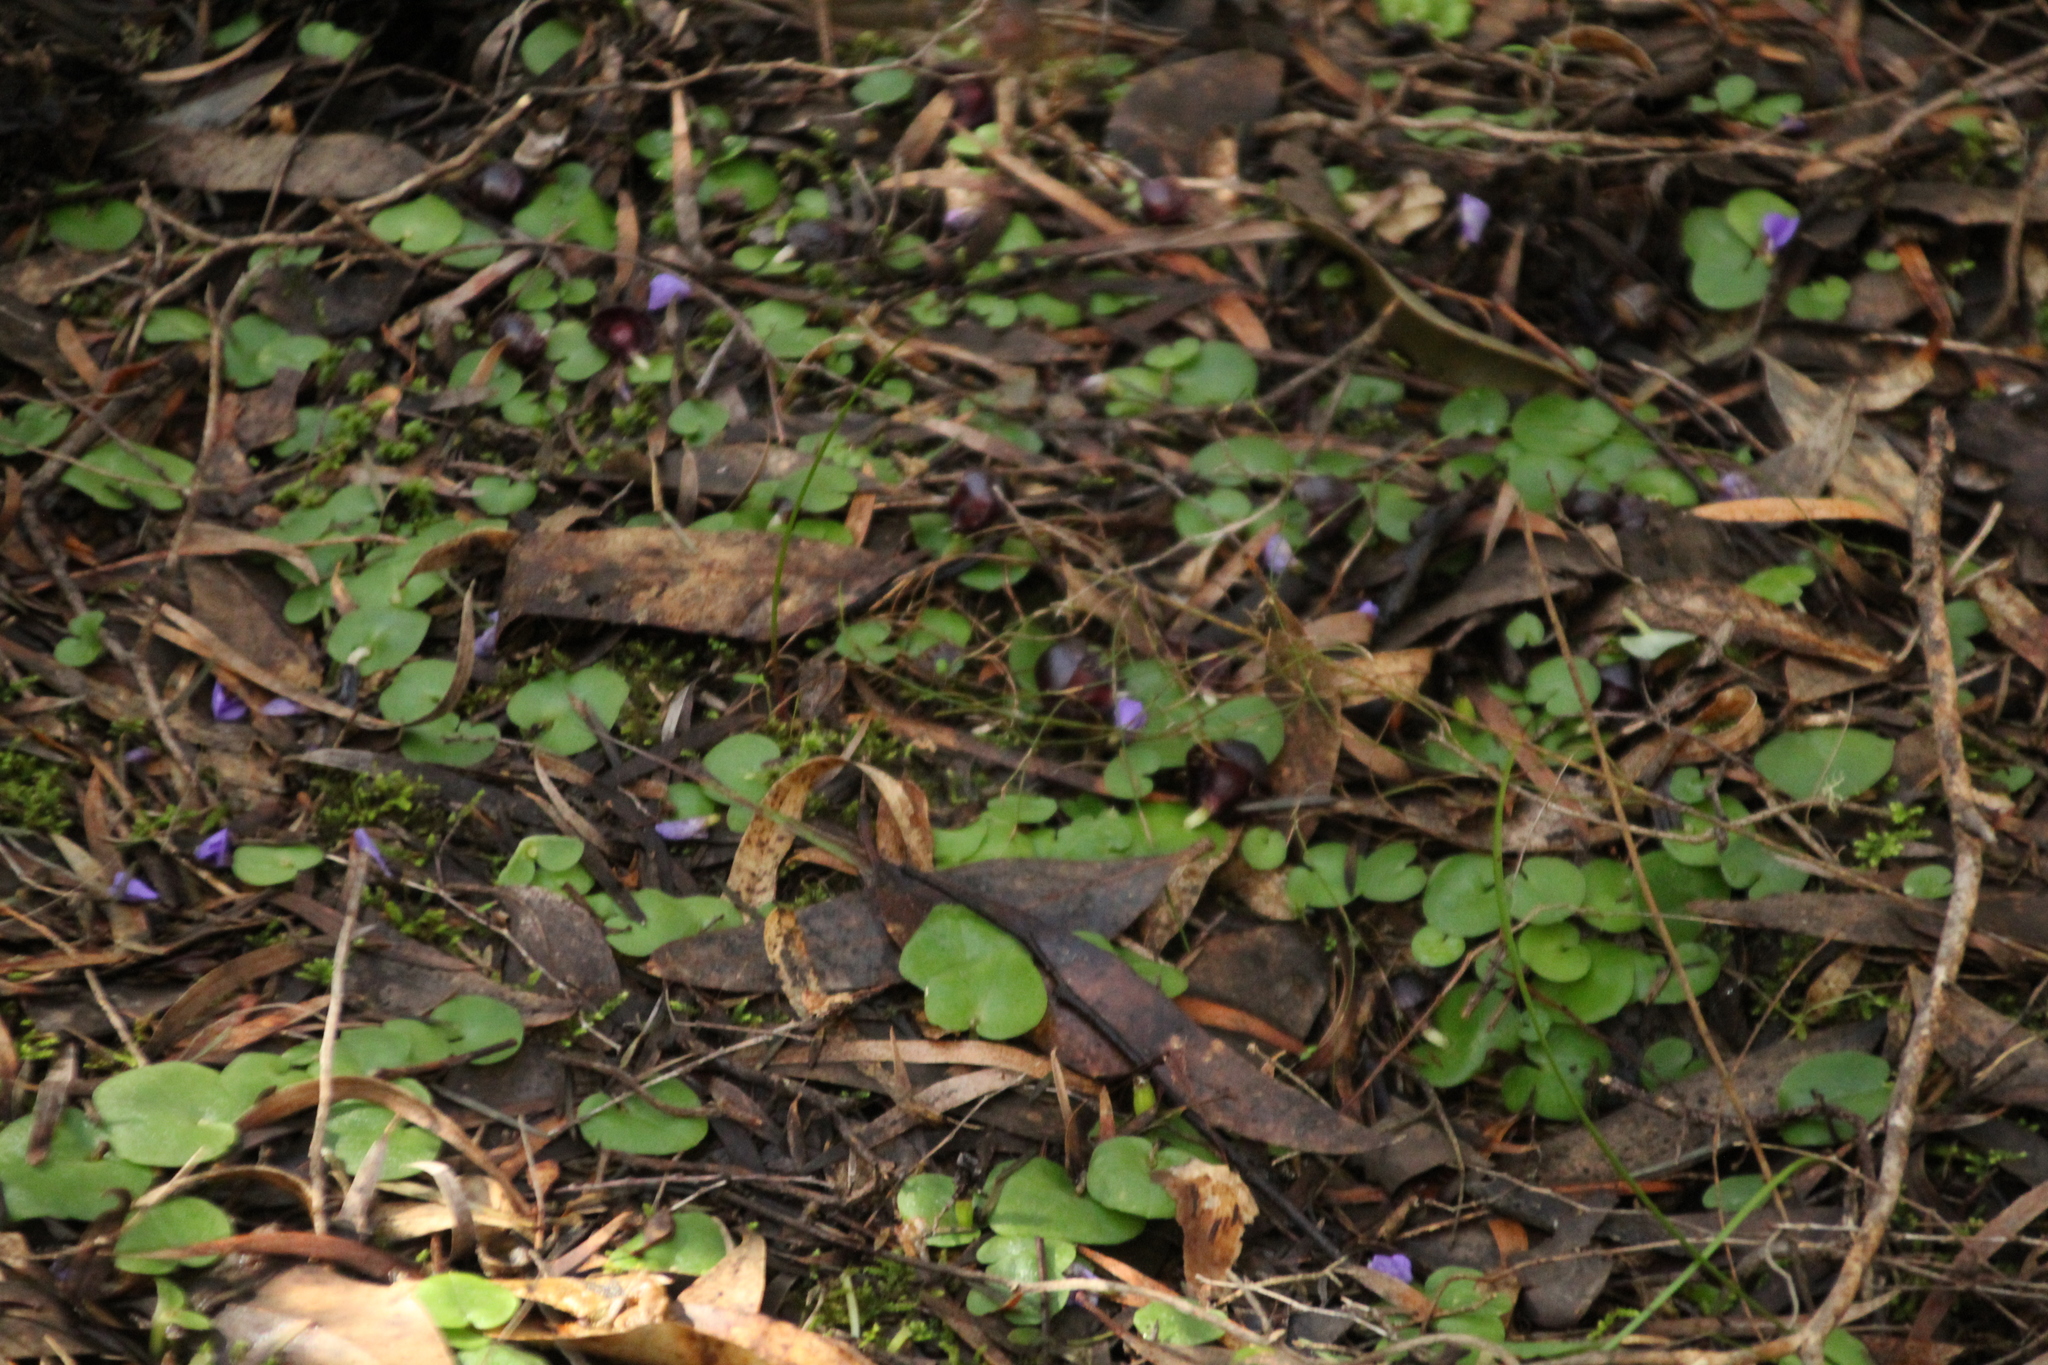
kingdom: Plantae
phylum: Tracheophyta
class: Liliopsida
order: Asparagales
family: Orchidaceae
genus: Corybas
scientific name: Corybas recurvus
